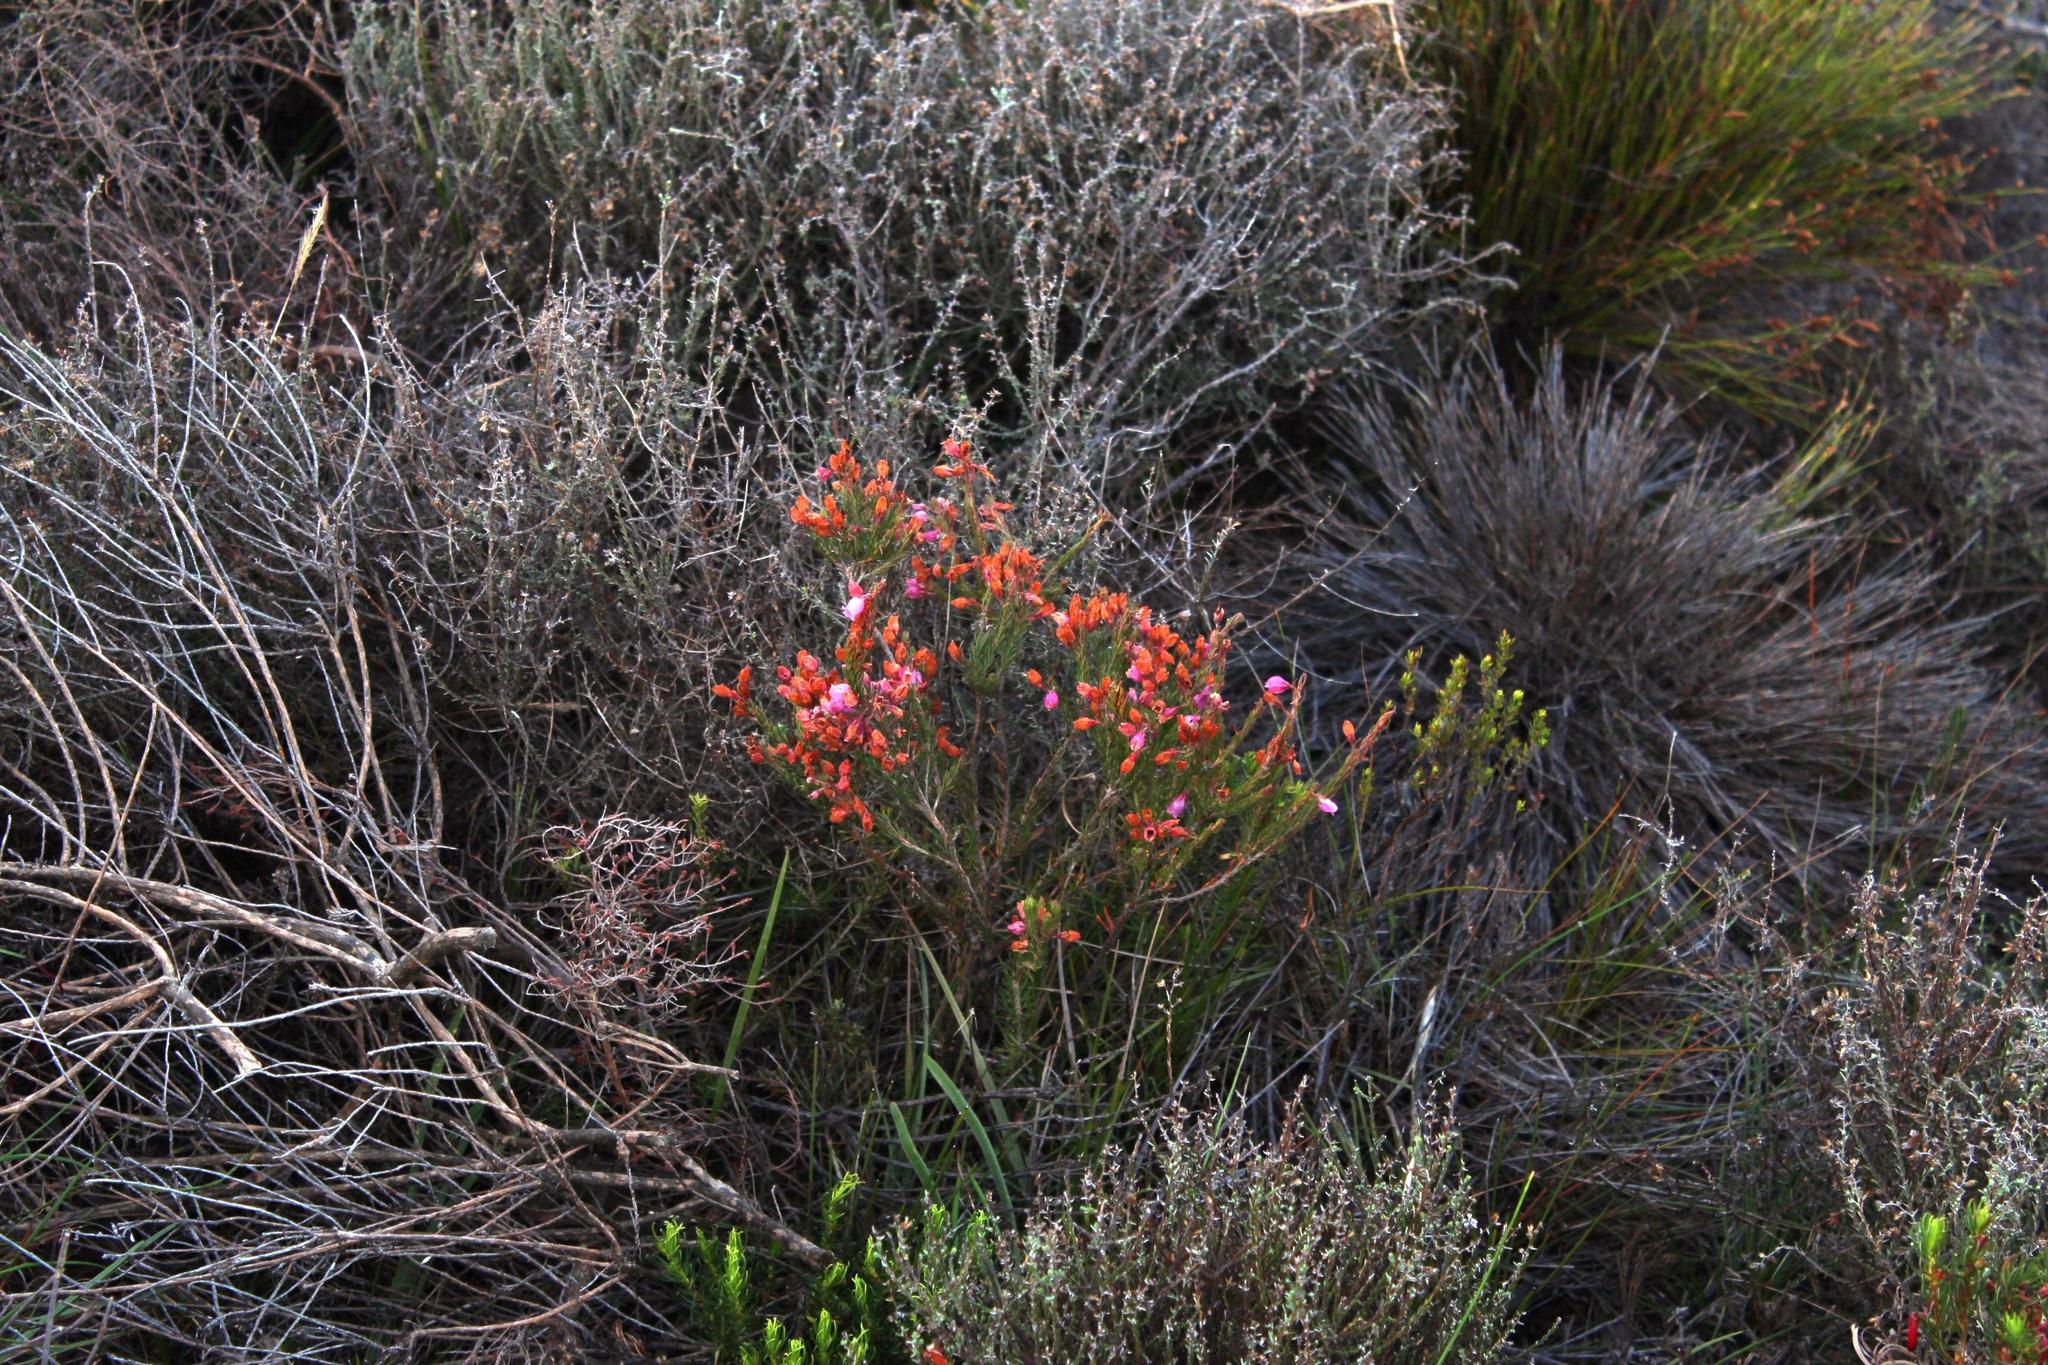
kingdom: Plantae
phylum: Tracheophyta
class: Magnoliopsida
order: Ericales
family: Ericaceae
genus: Erica
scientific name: Erica viscaria
